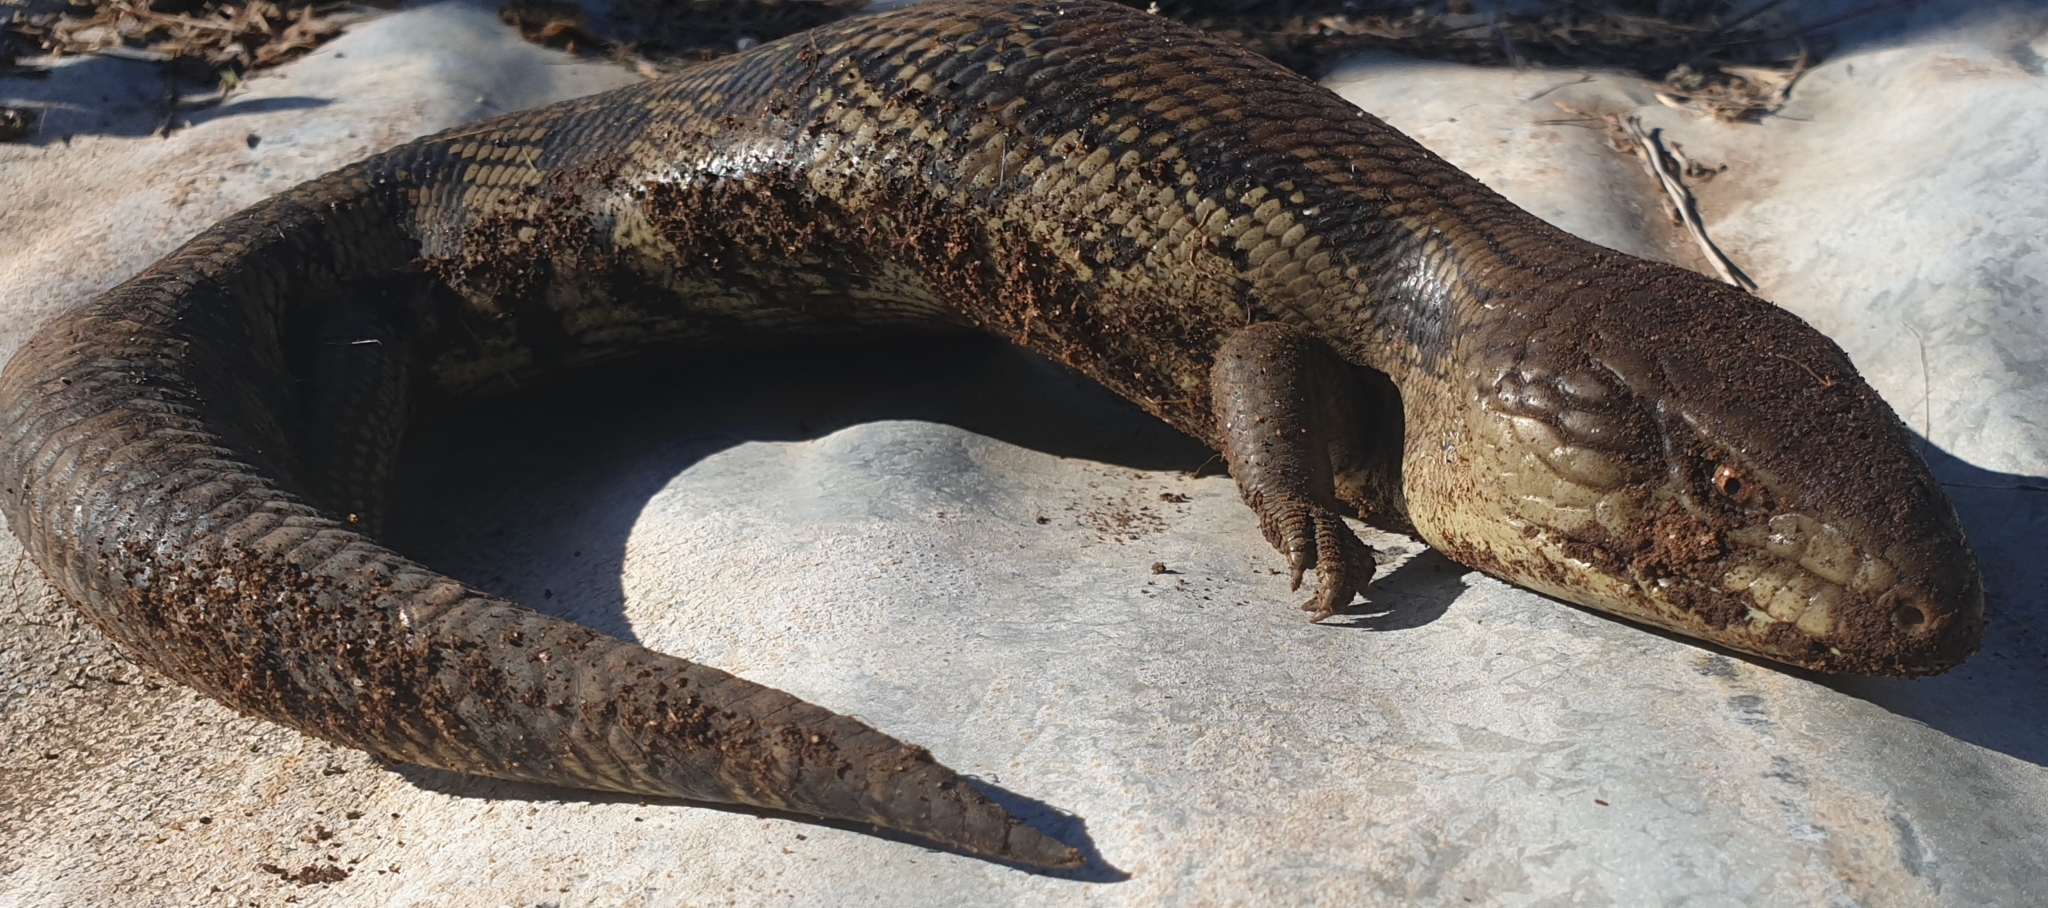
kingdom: Animalia
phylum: Chordata
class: Squamata
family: Scincidae
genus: Tiliqua
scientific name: Tiliqua scincoides
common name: Common bluetongue
